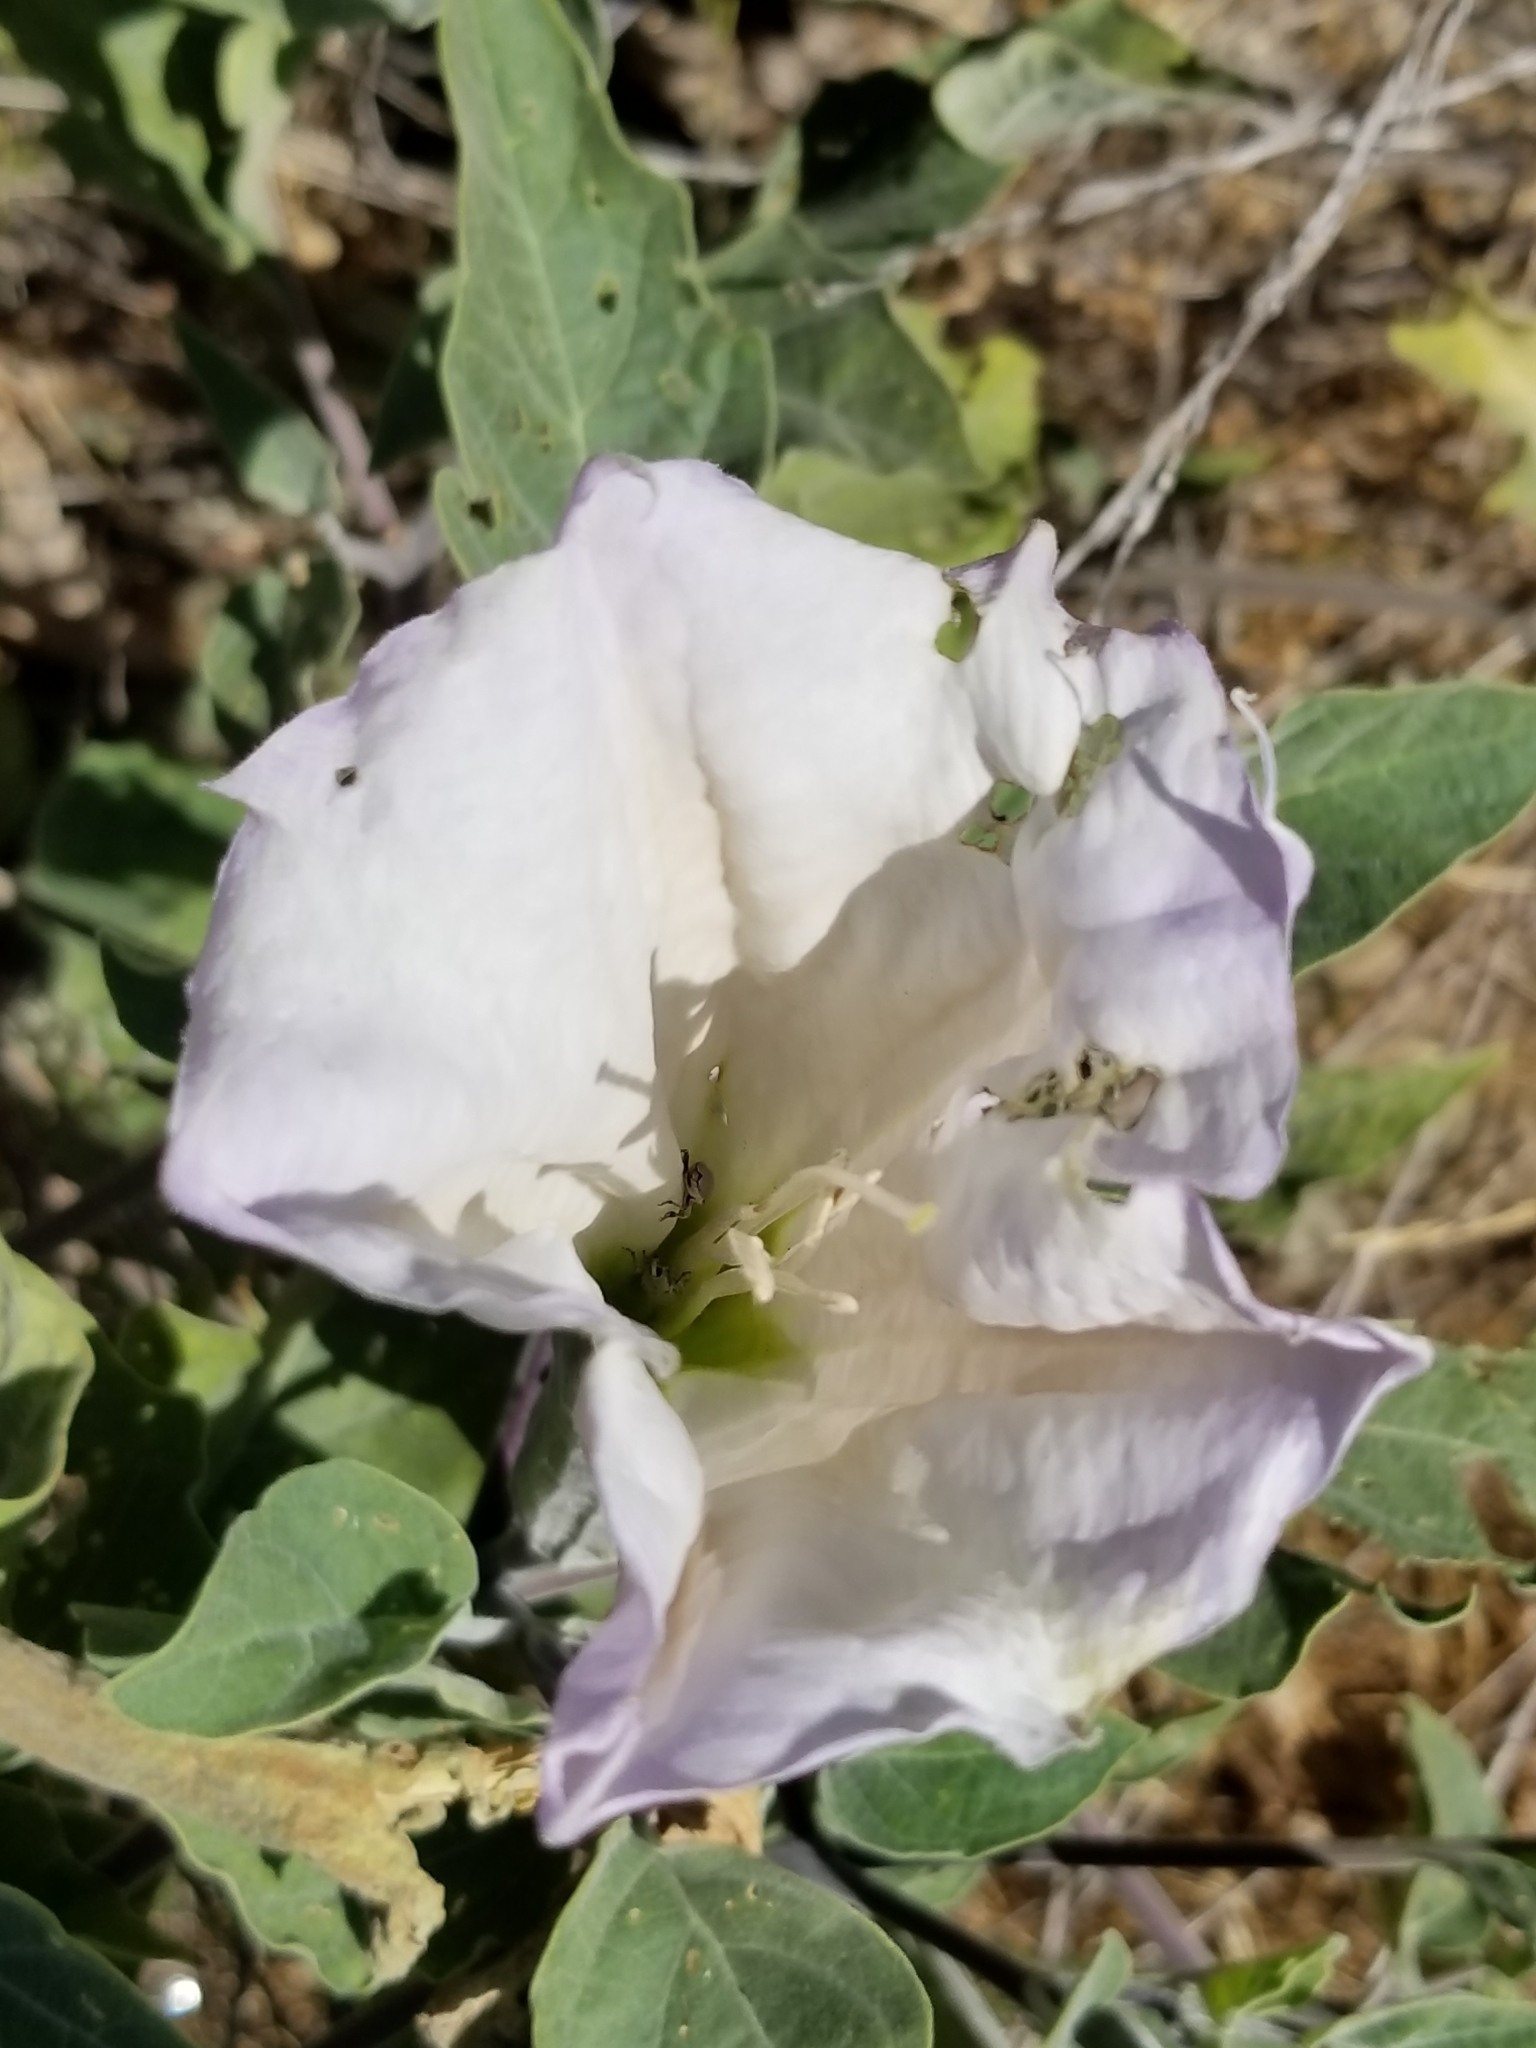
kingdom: Plantae
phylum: Tracheophyta
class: Magnoliopsida
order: Solanales
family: Solanaceae
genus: Datura
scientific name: Datura wrightii
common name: Sacred thorn-apple
